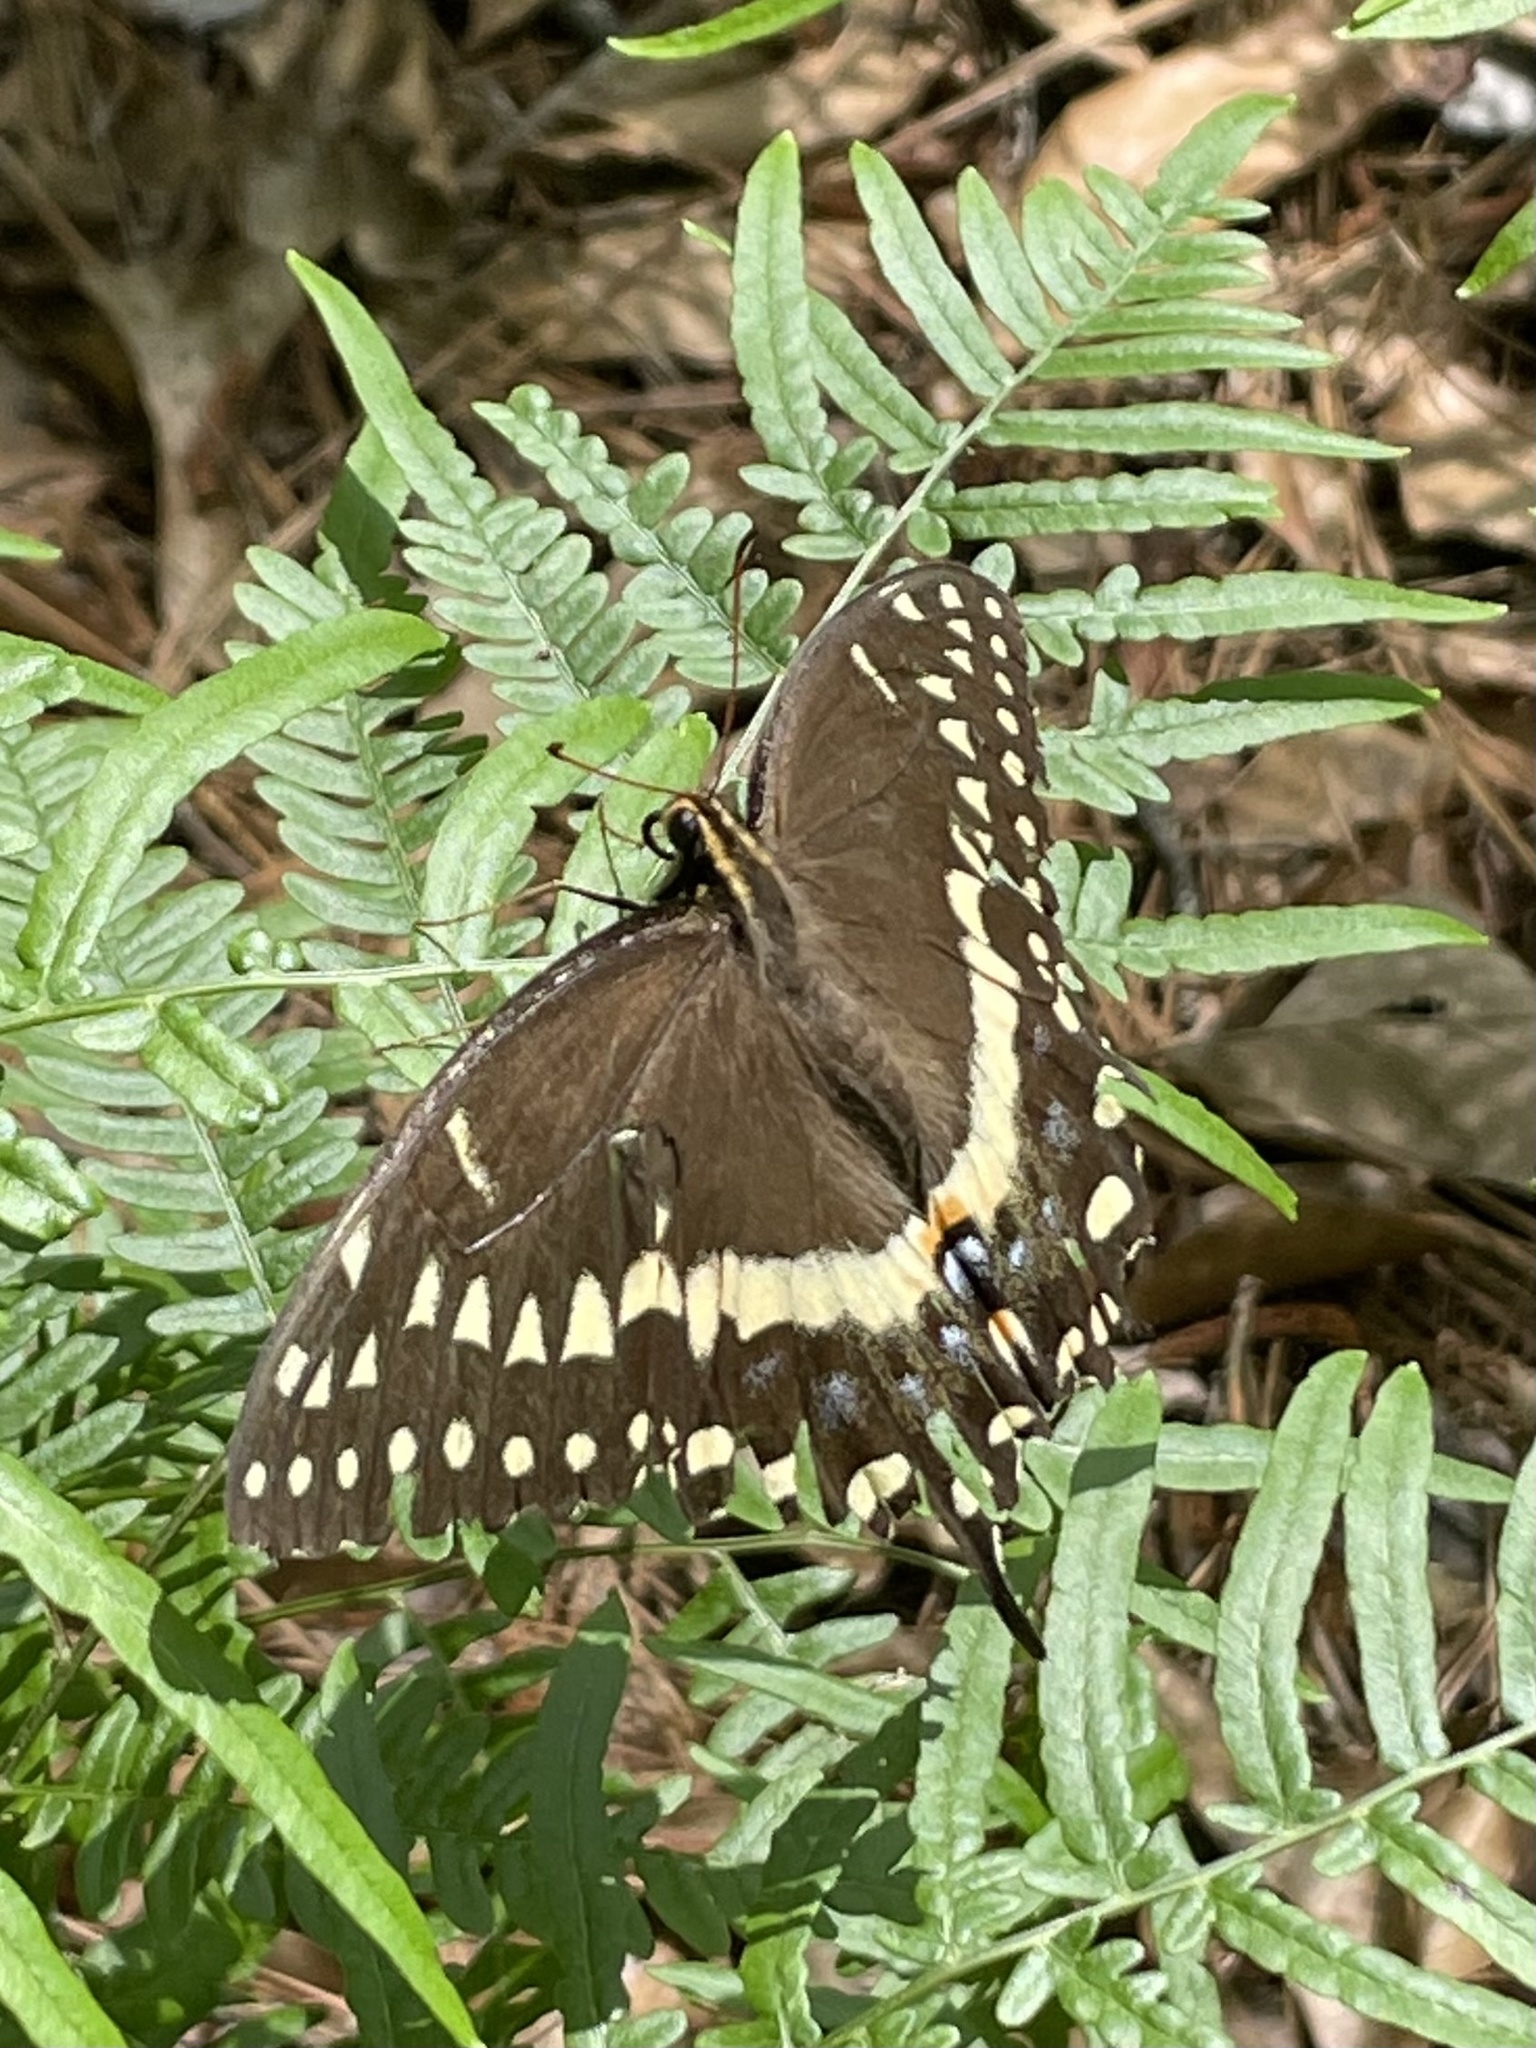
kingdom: Animalia
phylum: Arthropoda
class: Insecta
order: Lepidoptera
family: Papilionidae
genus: Papilio
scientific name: Papilio palamedes
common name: Palamedes swallowtail
